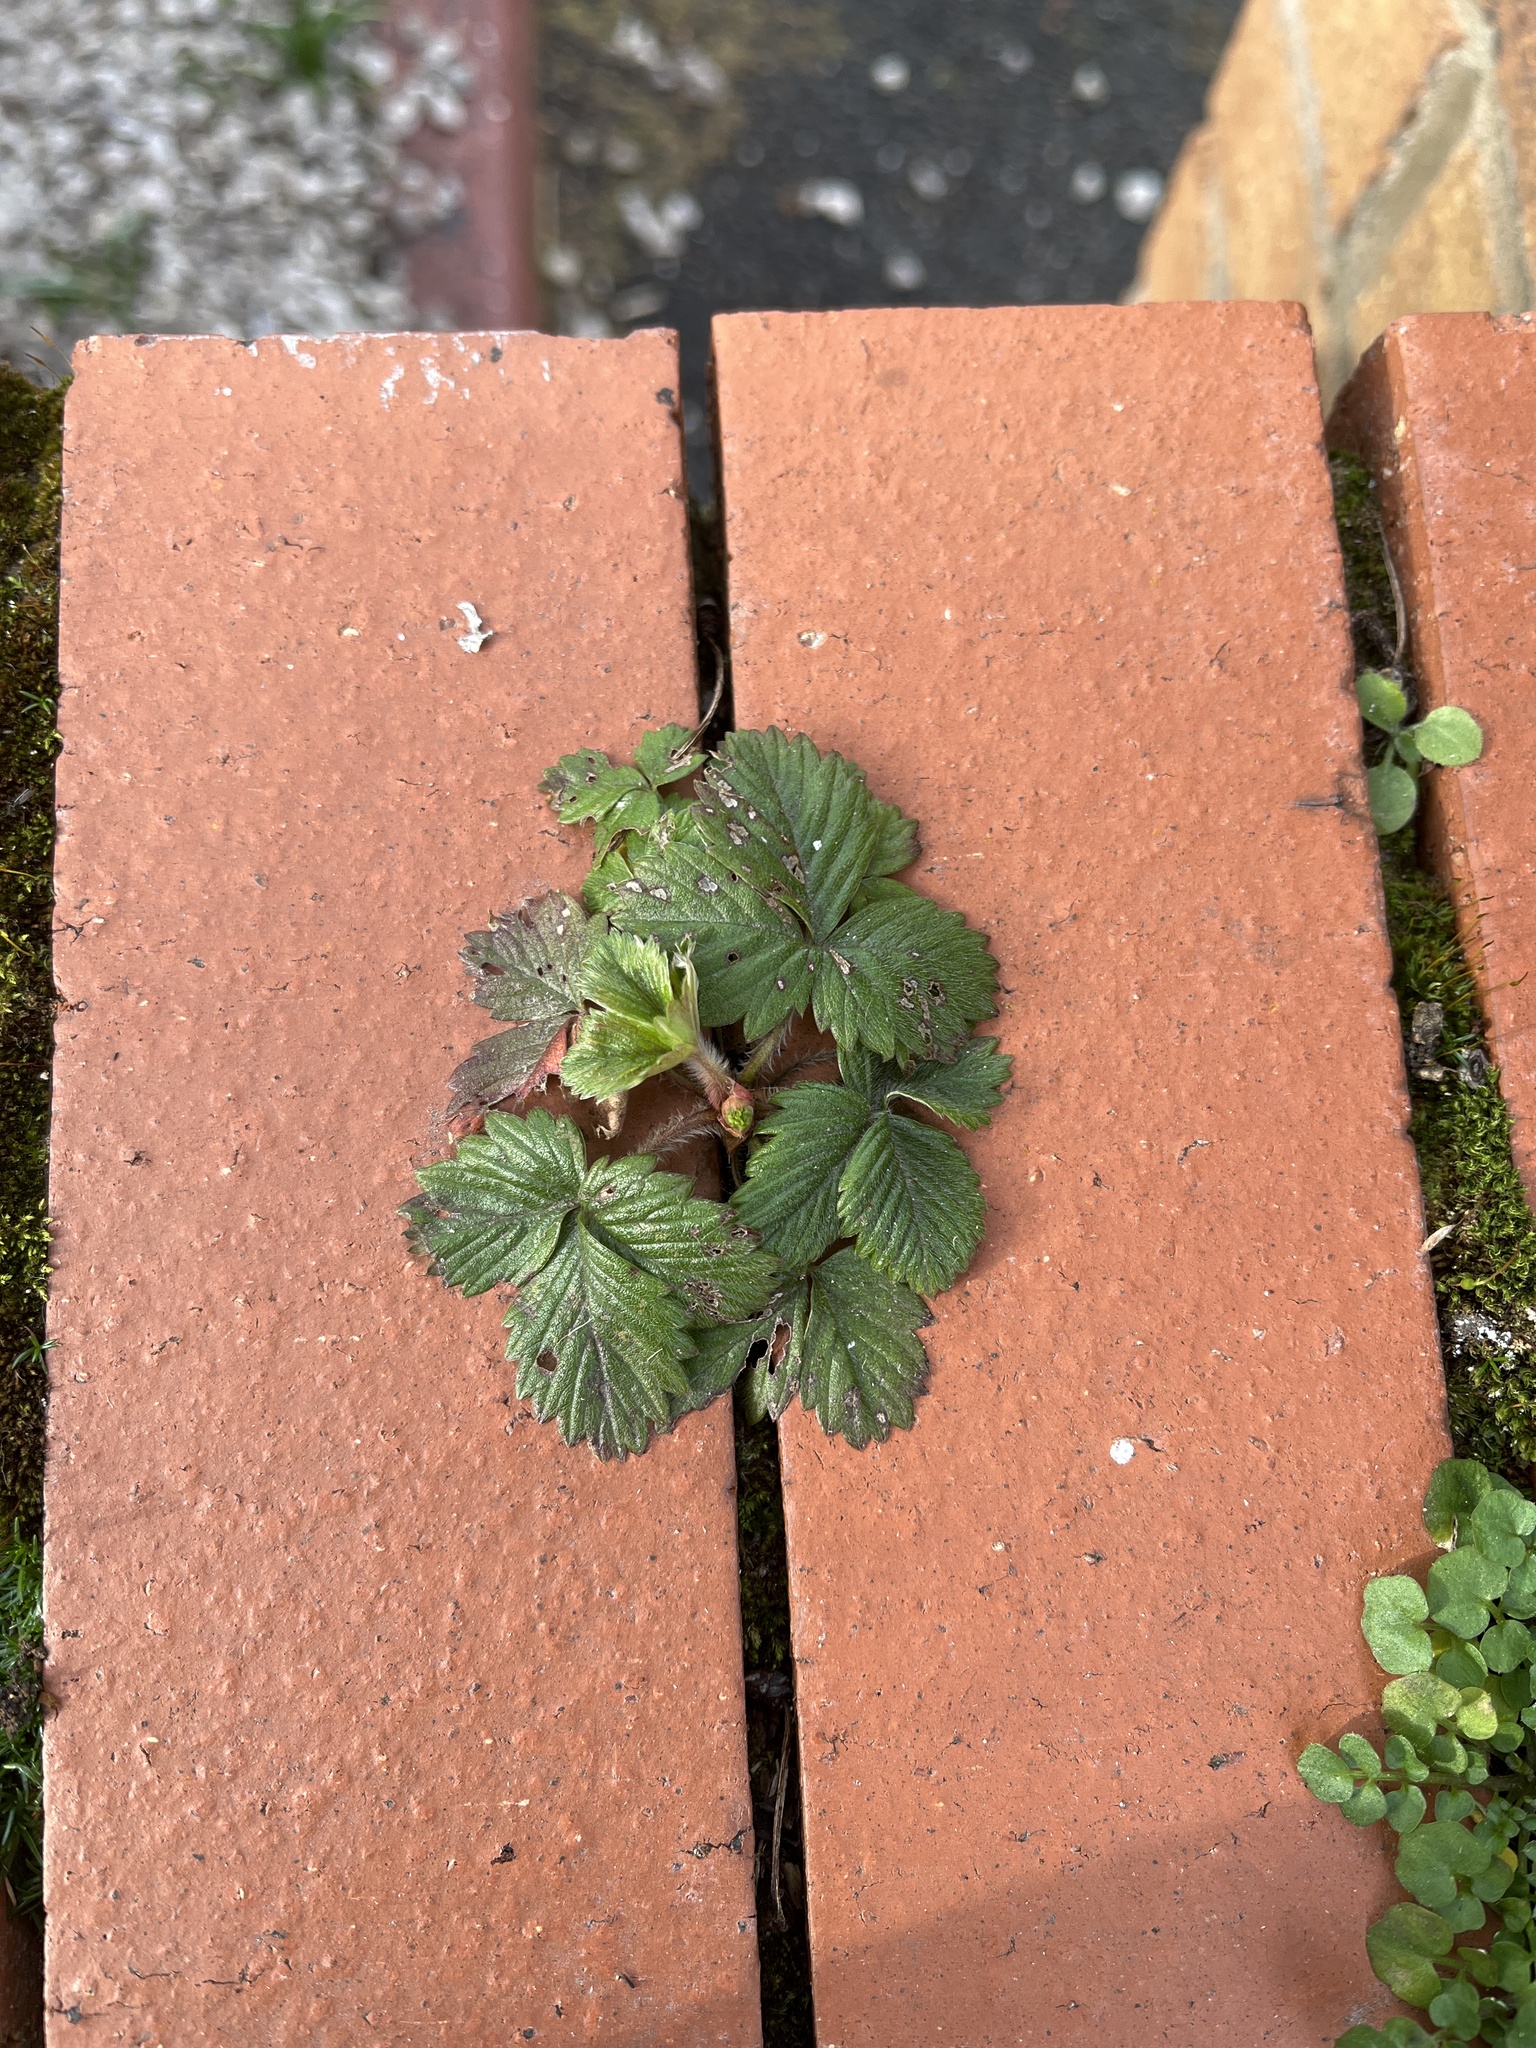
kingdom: Plantae
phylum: Tracheophyta
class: Magnoliopsida
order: Rosales
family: Rosaceae
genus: Fragaria
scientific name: Fragaria vesca
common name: Wild strawberry
